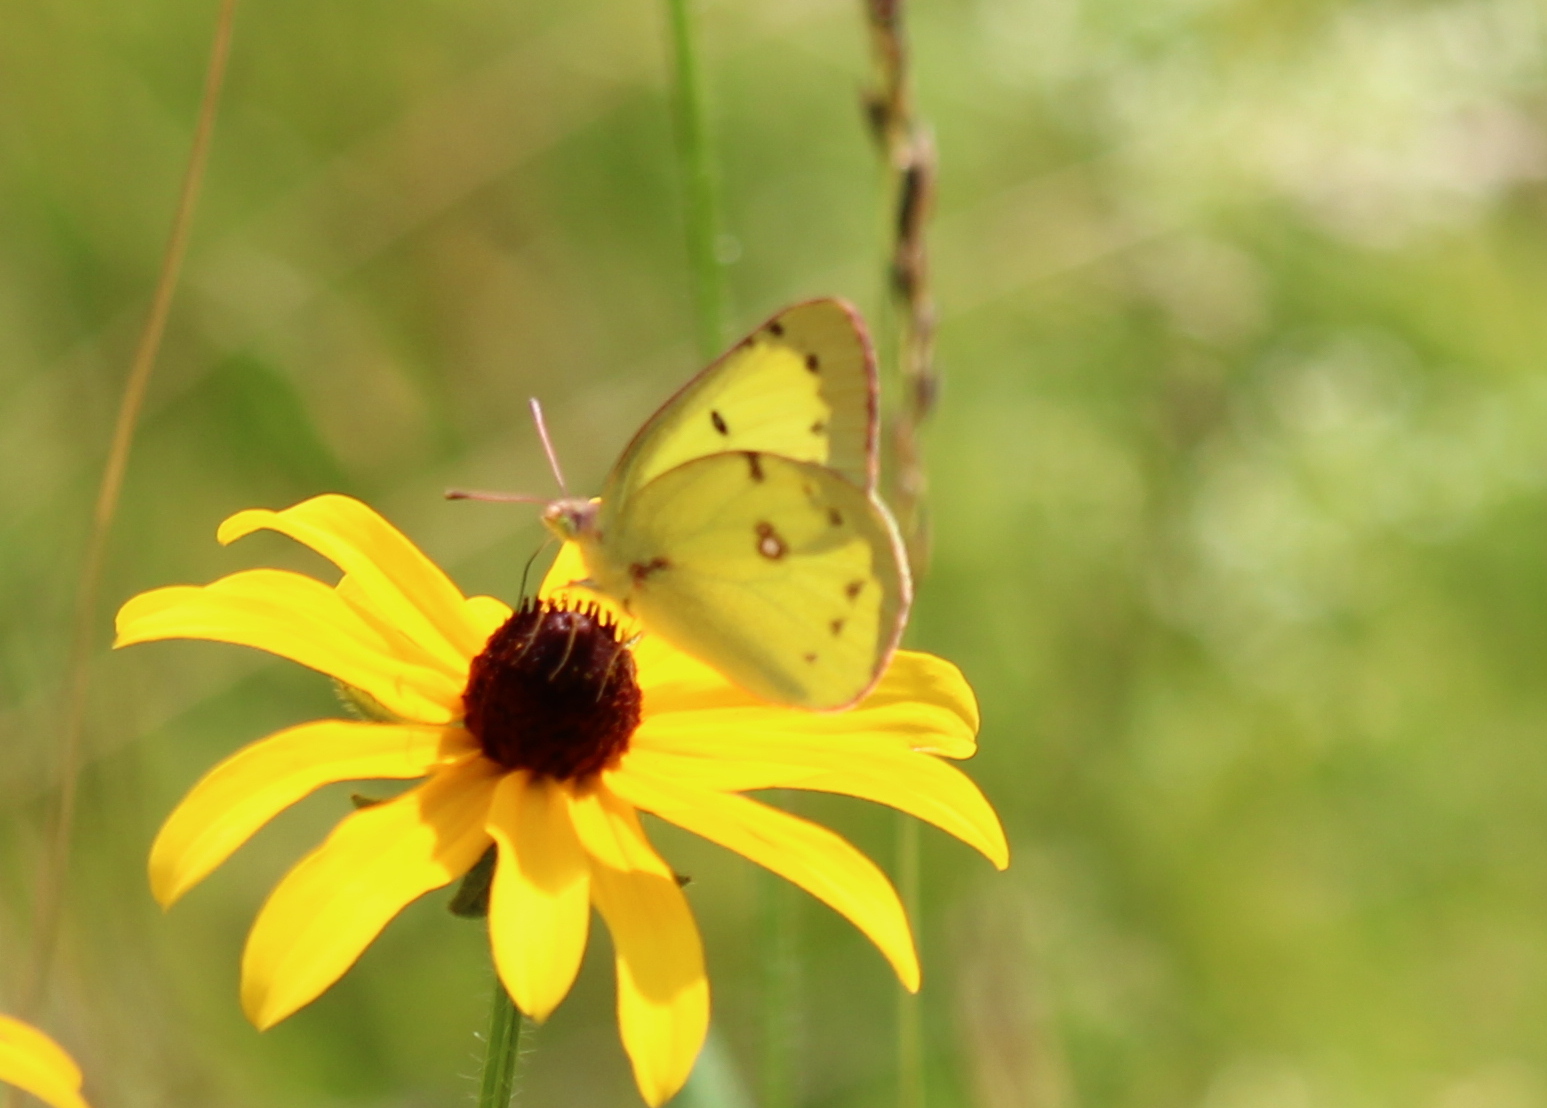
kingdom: Animalia
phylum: Arthropoda
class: Insecta
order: Lepidoptera
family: Pieridae
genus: Colias
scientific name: Colias philodice
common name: Clouded sulphur
